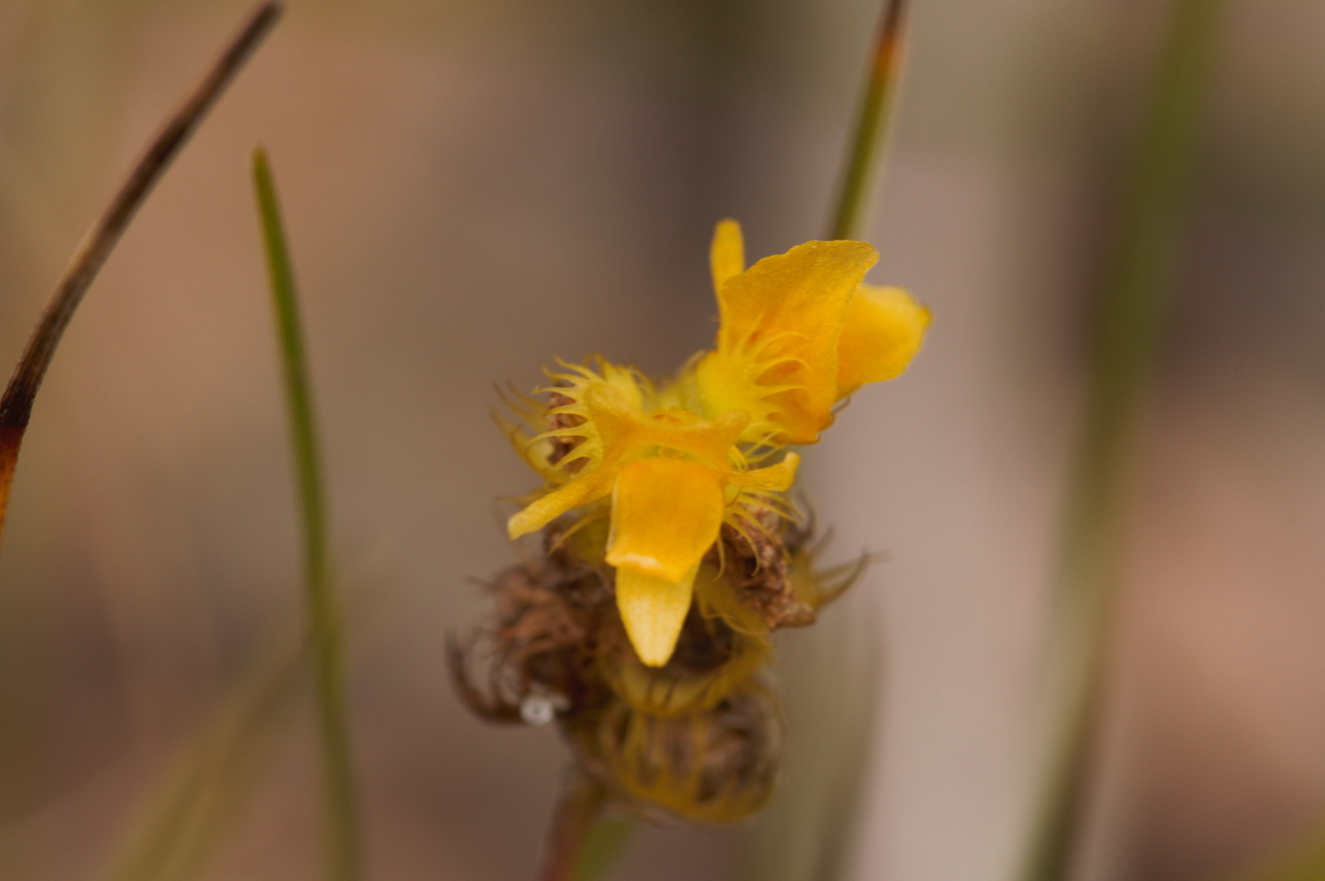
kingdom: Plantae
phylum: Tracheophyta
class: Magnoliopsida
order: Lamiales
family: Lentibulariaceae
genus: Utricularia
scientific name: Utricularia simulans
